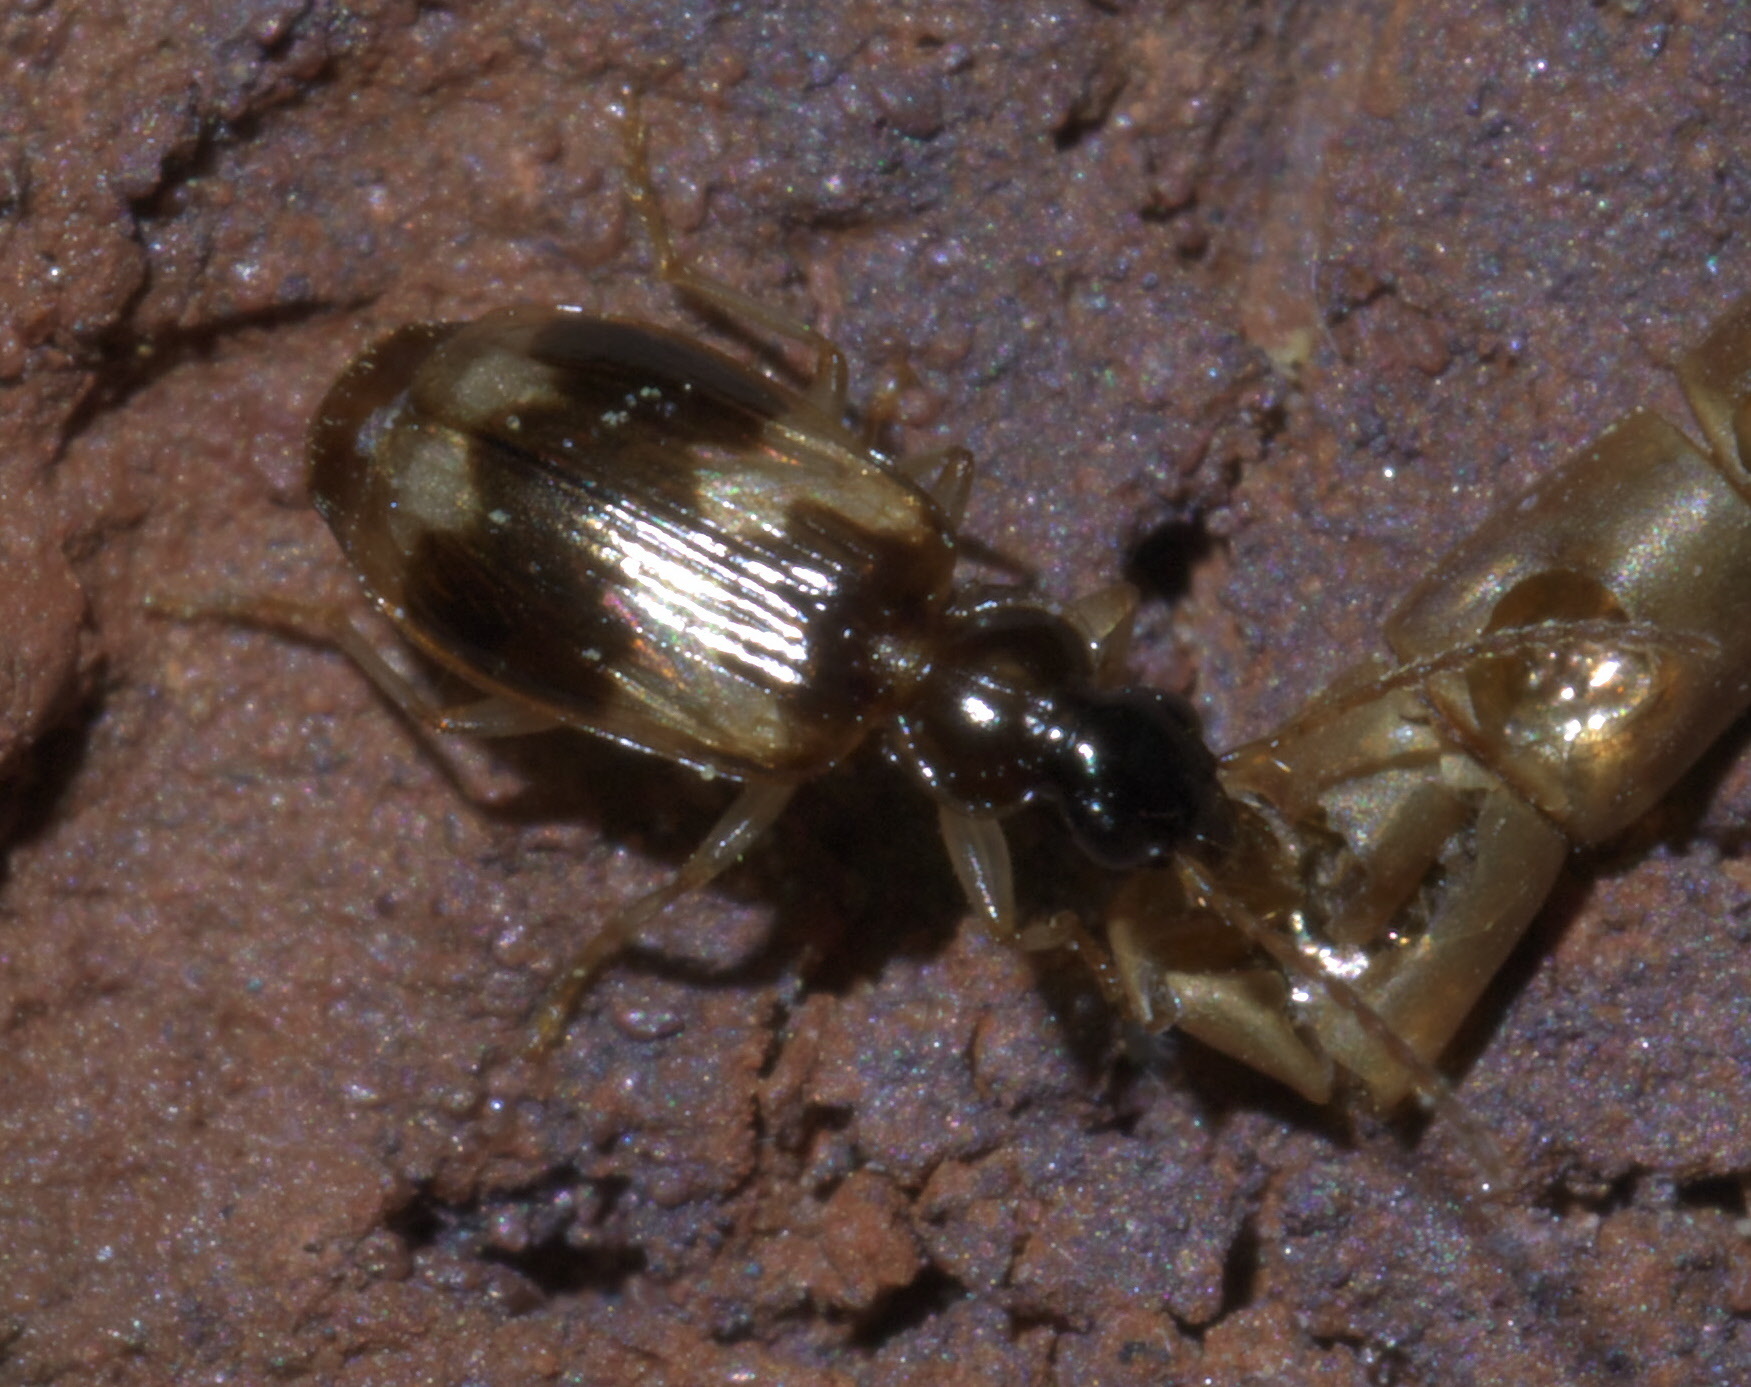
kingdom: Animalia
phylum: Arthropoda
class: Insecta
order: Coleoptera
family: Carabidae
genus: Lebia
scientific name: Lebia fuscata
